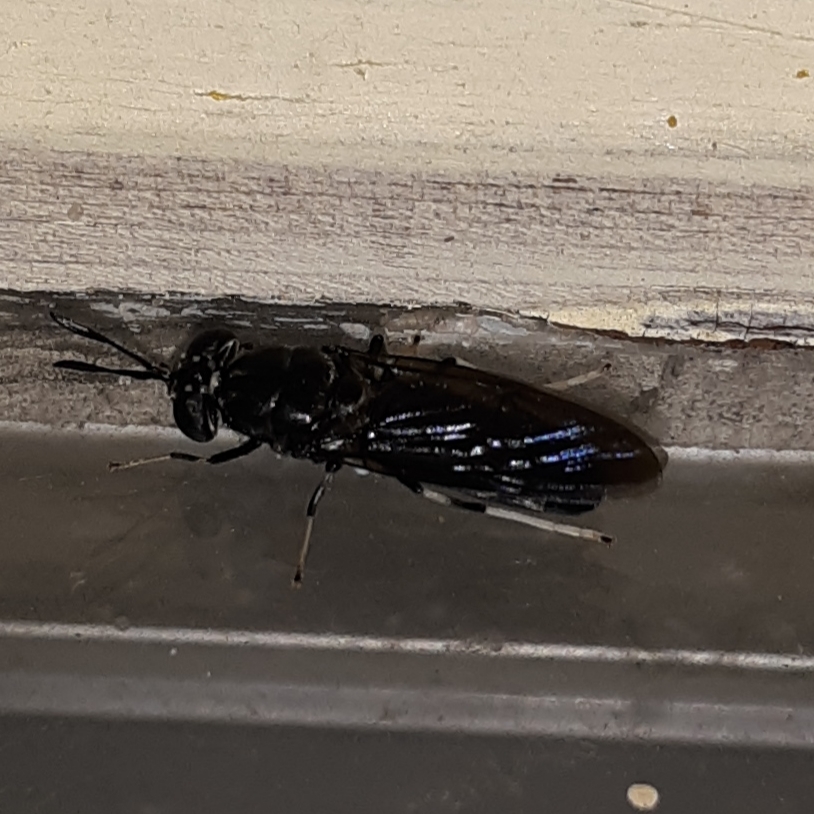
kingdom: Animalia
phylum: Arthropoda
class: Insecta
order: Diptera
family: Stratiomyidae
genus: Hermetia
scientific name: Hermetia illucens
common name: Black soldier fly
